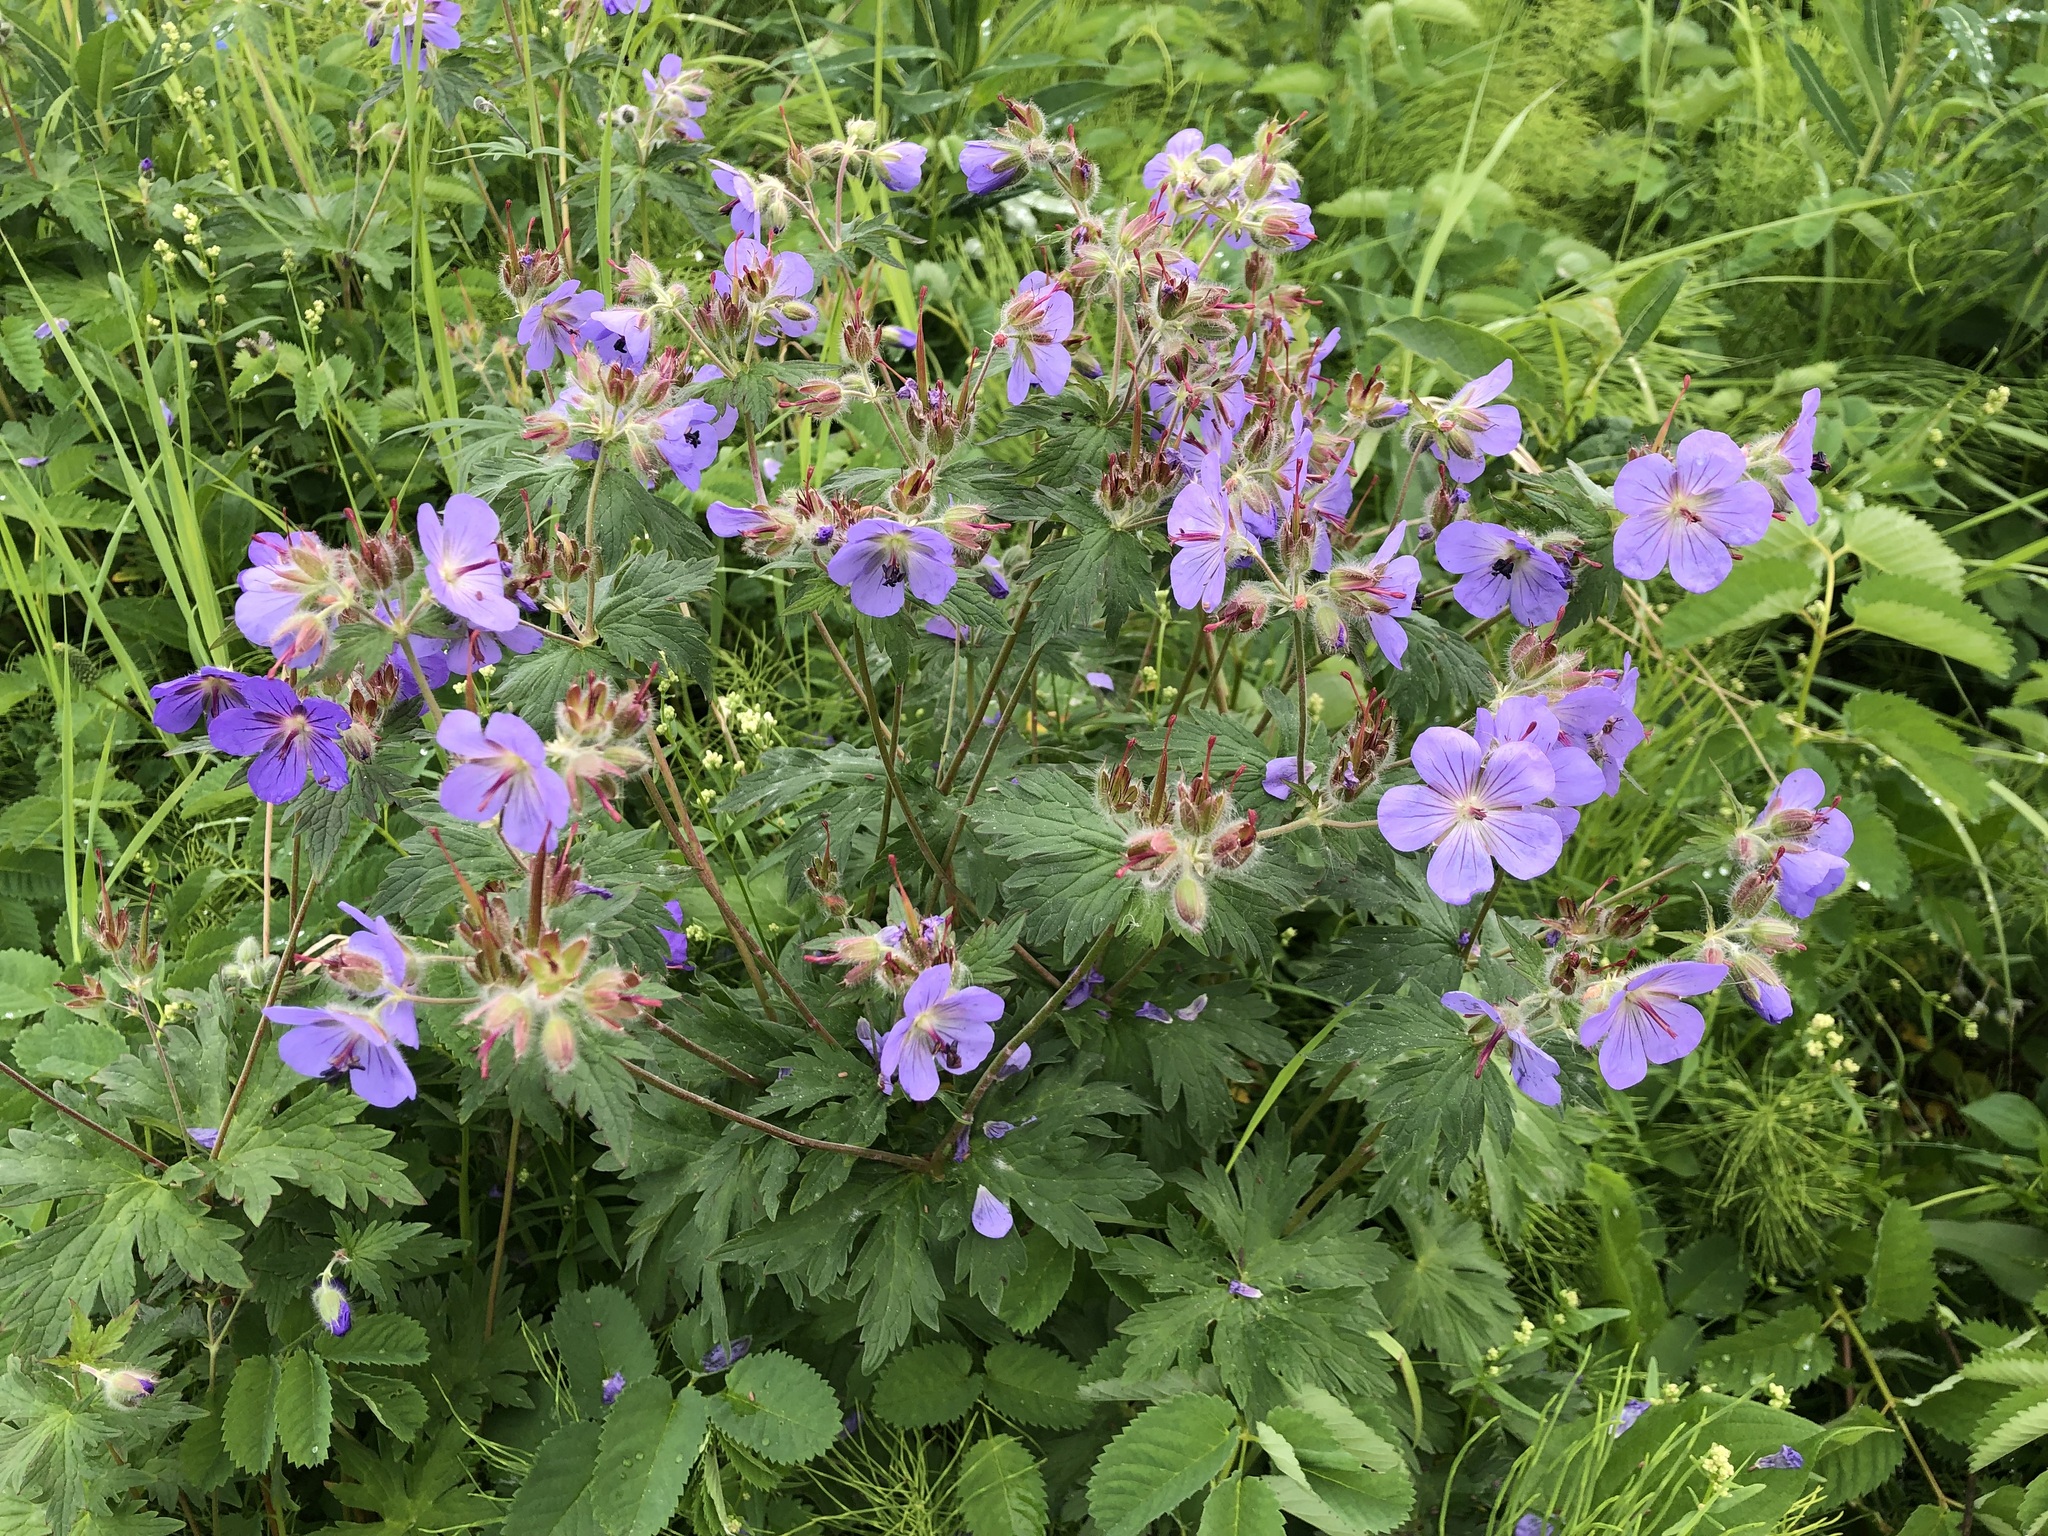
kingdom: Plantae
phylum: Tracheophyta
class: Magnoliopsida
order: Geraniales
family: Geraniaceae
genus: Geranium
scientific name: Geranium erianthum
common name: Northern crane's-bill
